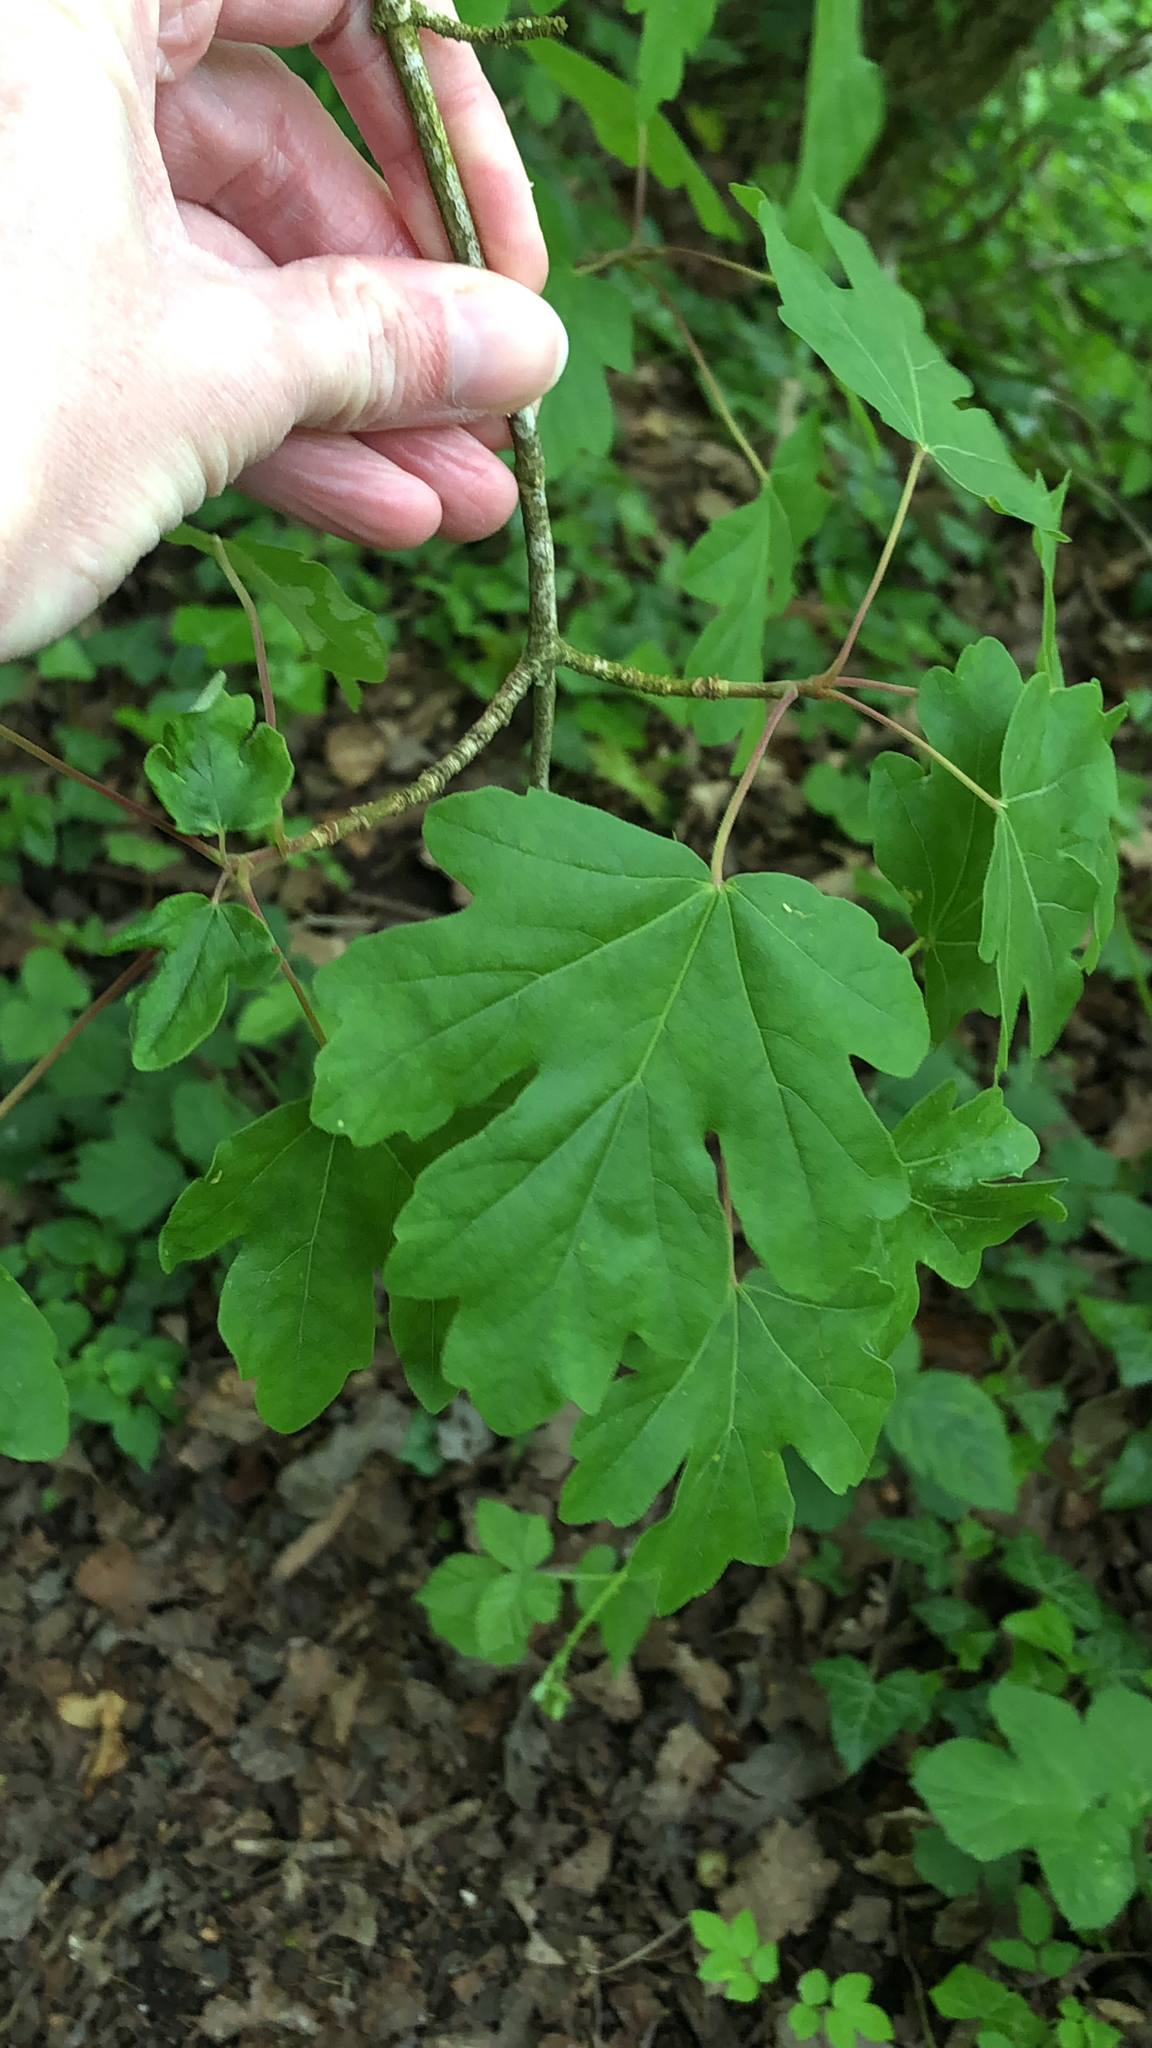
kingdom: Plantae
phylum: Tracheophyta
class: Magnoliopsida
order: Sapindales
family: Sapindaceae
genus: Acer
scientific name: Acer campestre
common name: Field maple
